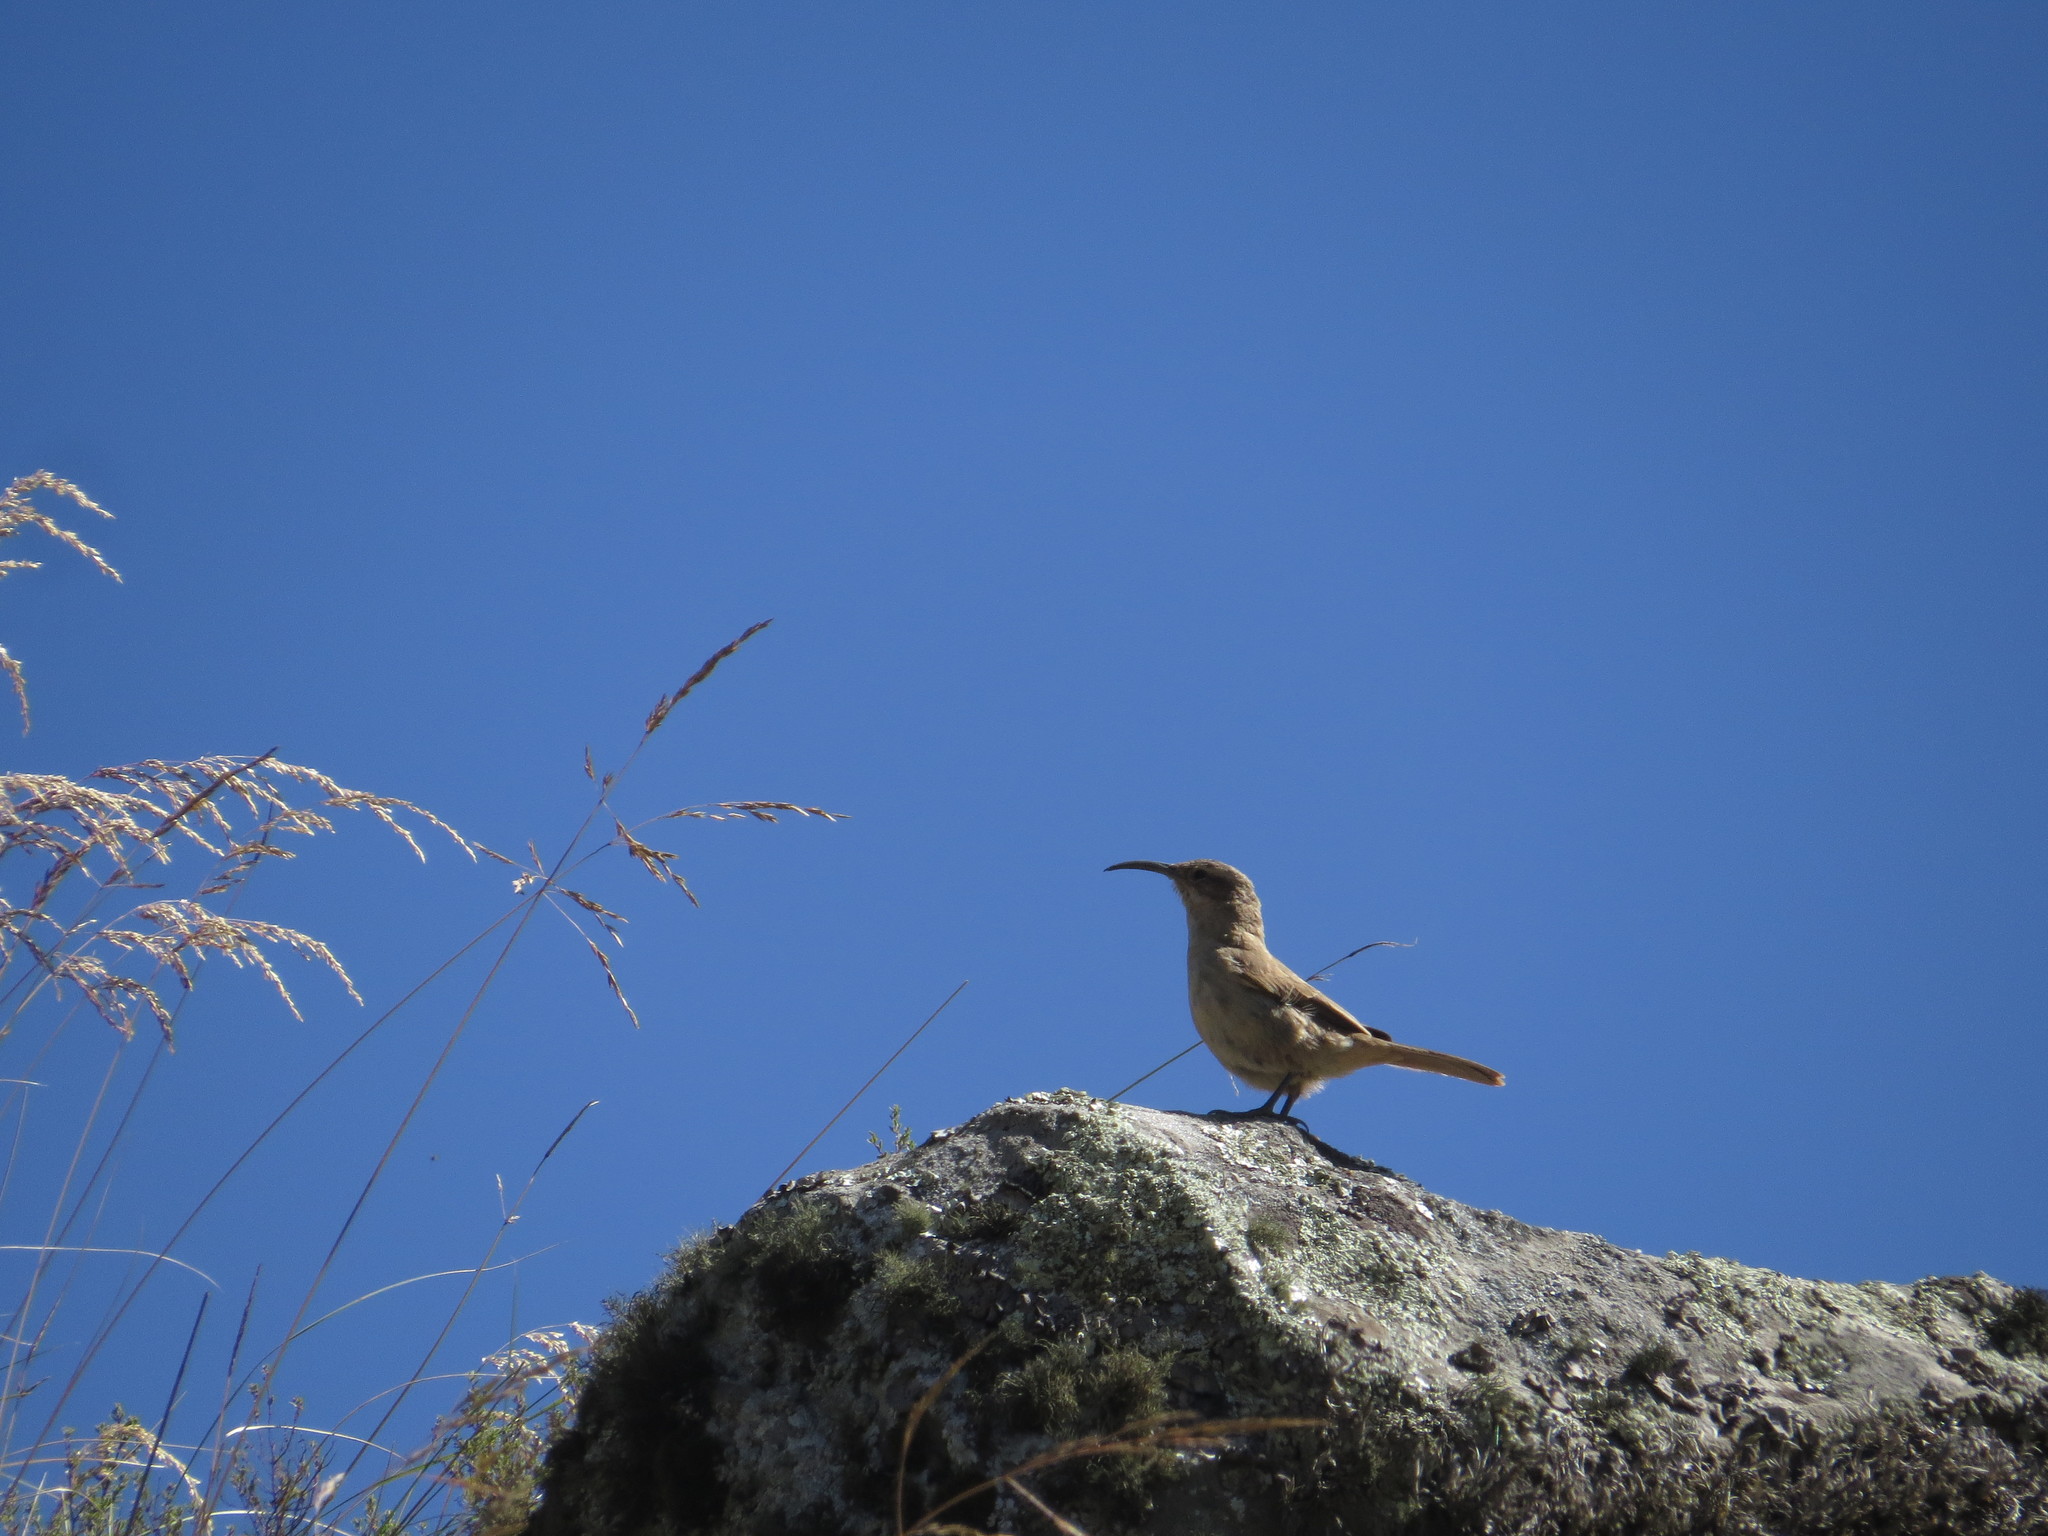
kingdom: Animalia
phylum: Chordata
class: Aves
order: Passeriformes
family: Furnariidae
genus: Upucerthia
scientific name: Upucerthia validirostris
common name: Buff-breasted earthcreeper
